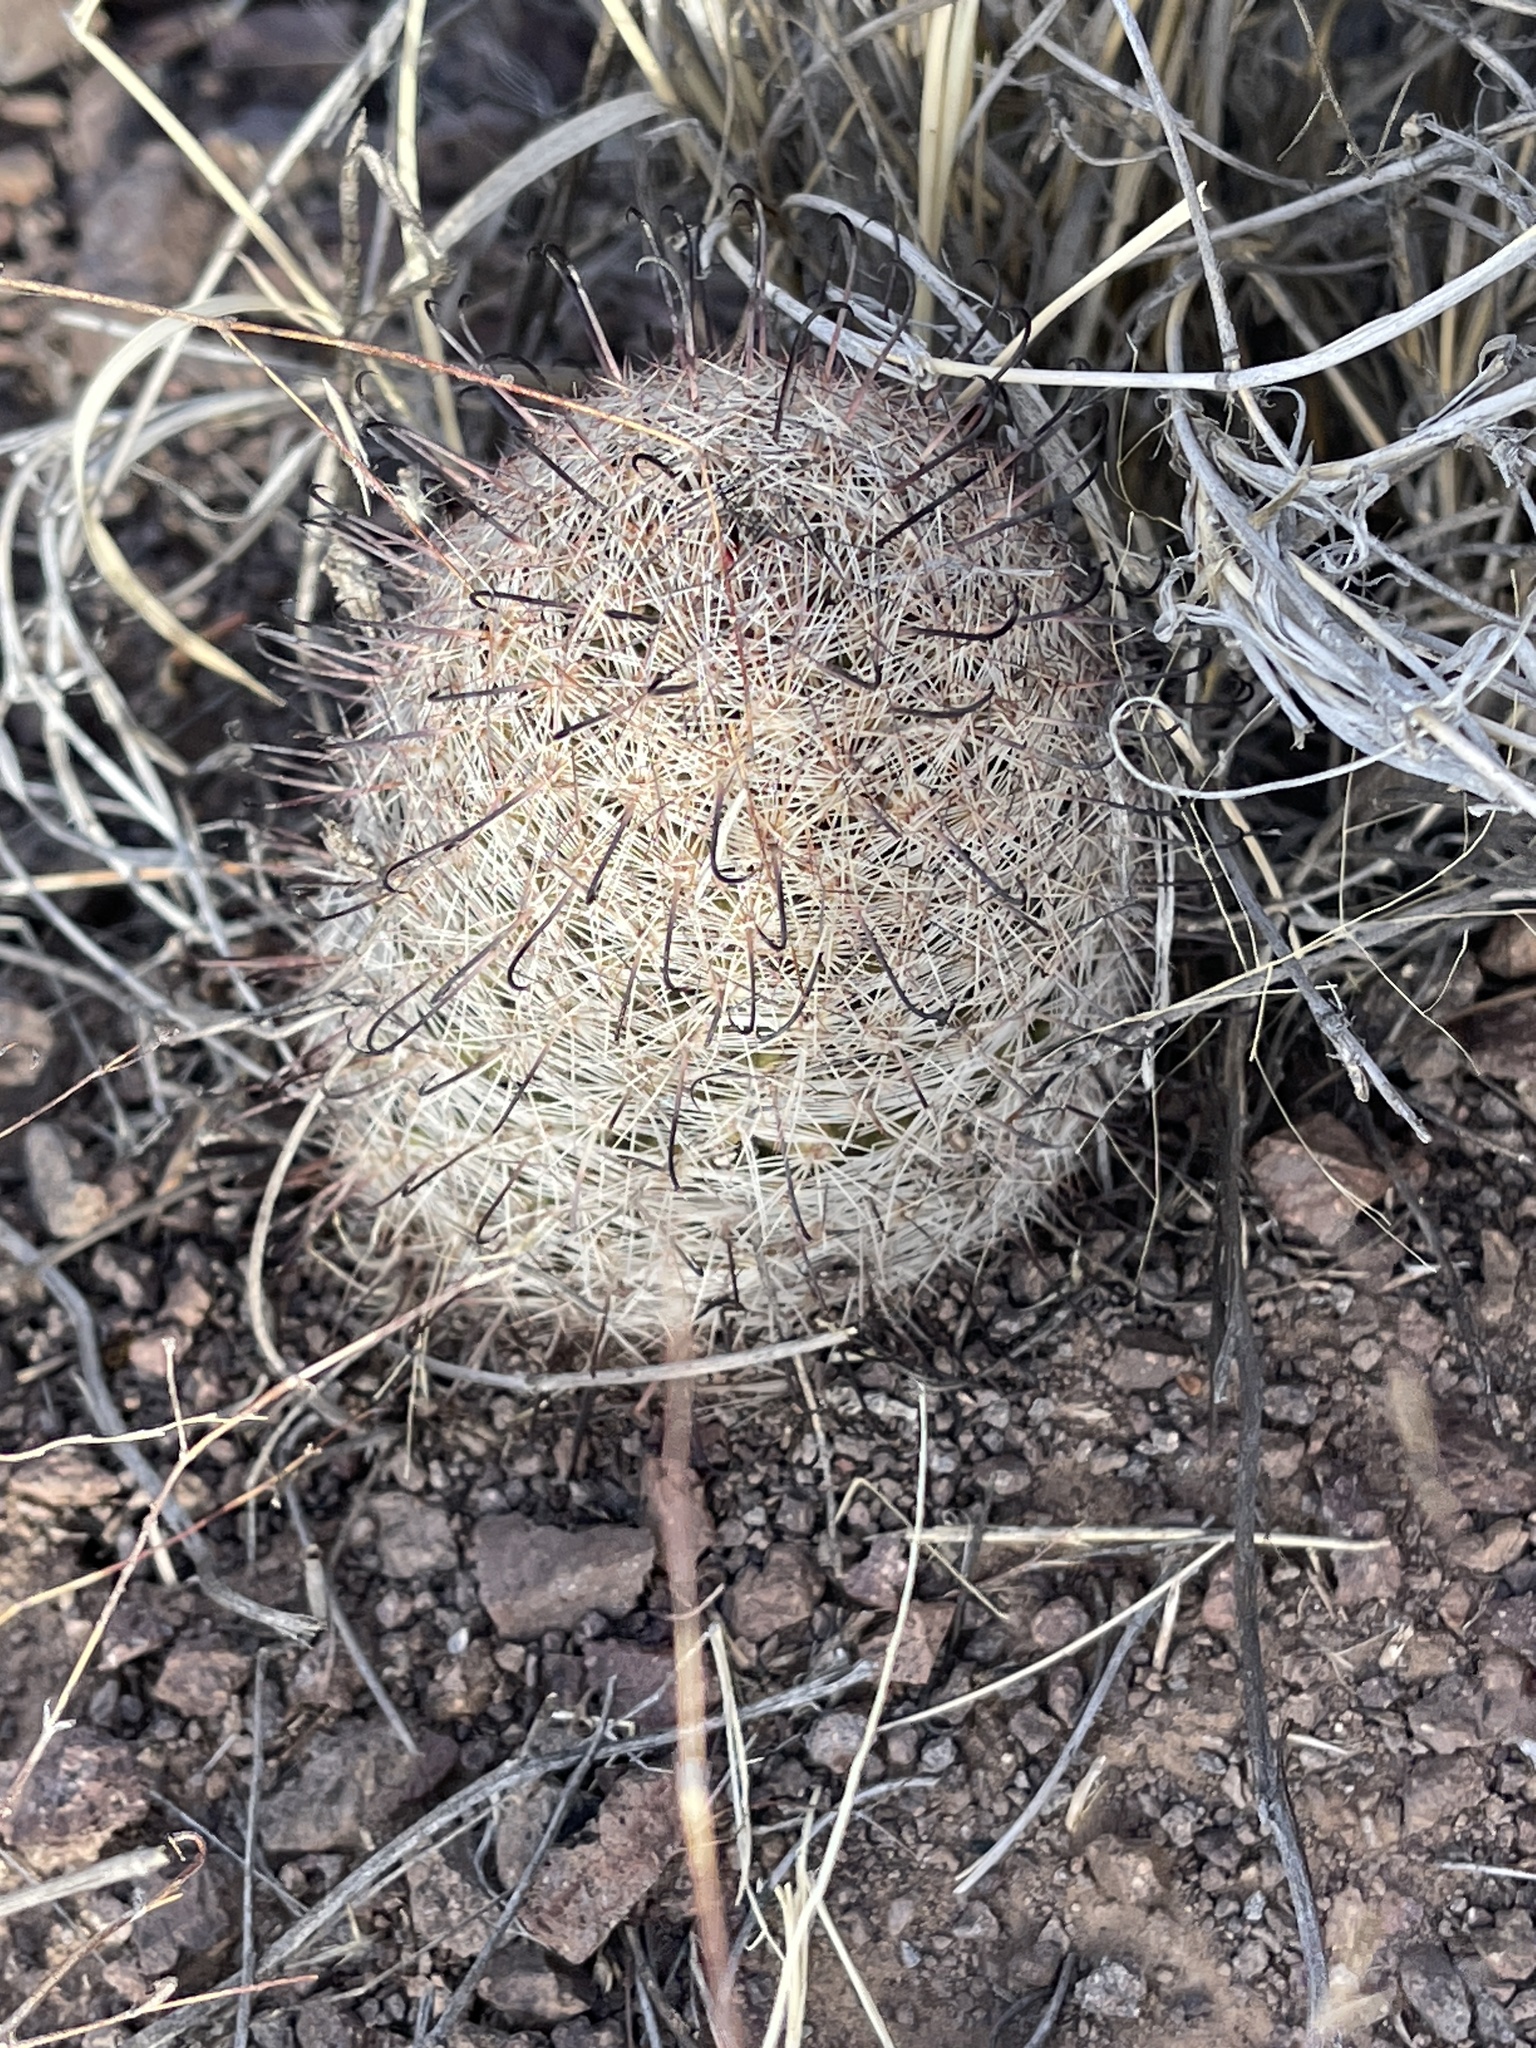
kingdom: Plantae
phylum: Tracheophyta
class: Magnoliopsida
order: Caryophyllales
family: Cactaceae
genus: Cochemiea
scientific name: Cochemiea grahamii
